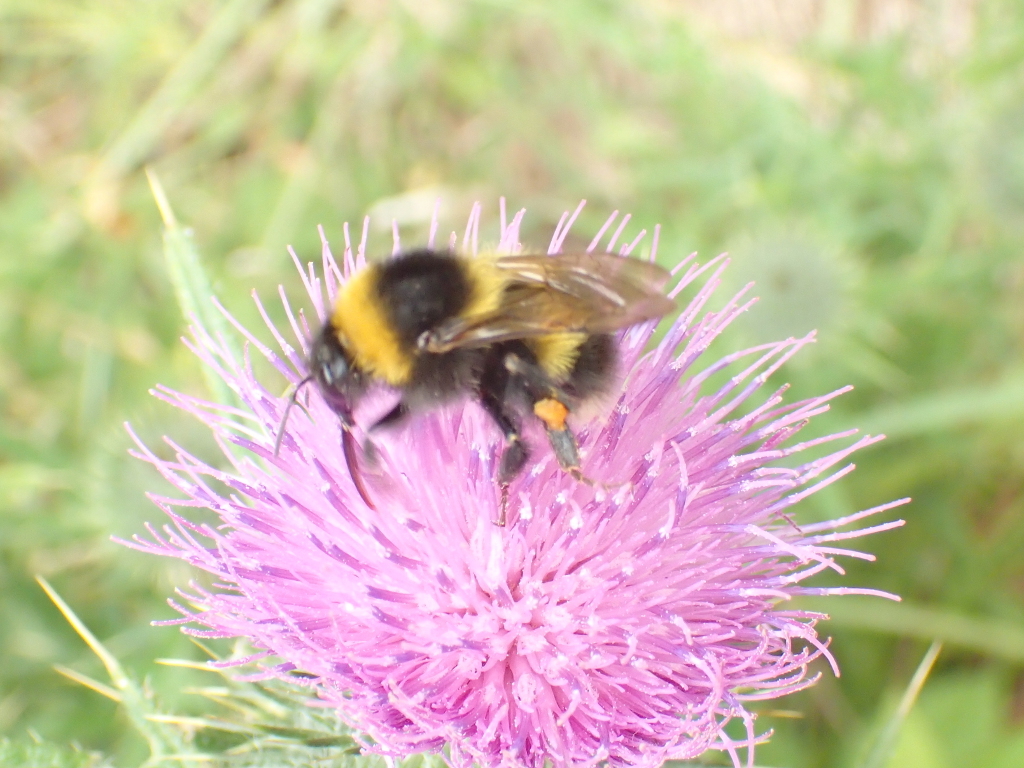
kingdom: Animalia
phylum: Arthropoda
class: Insecta
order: Hymenoptera
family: Apidae
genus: Megabombus
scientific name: Megabombus
